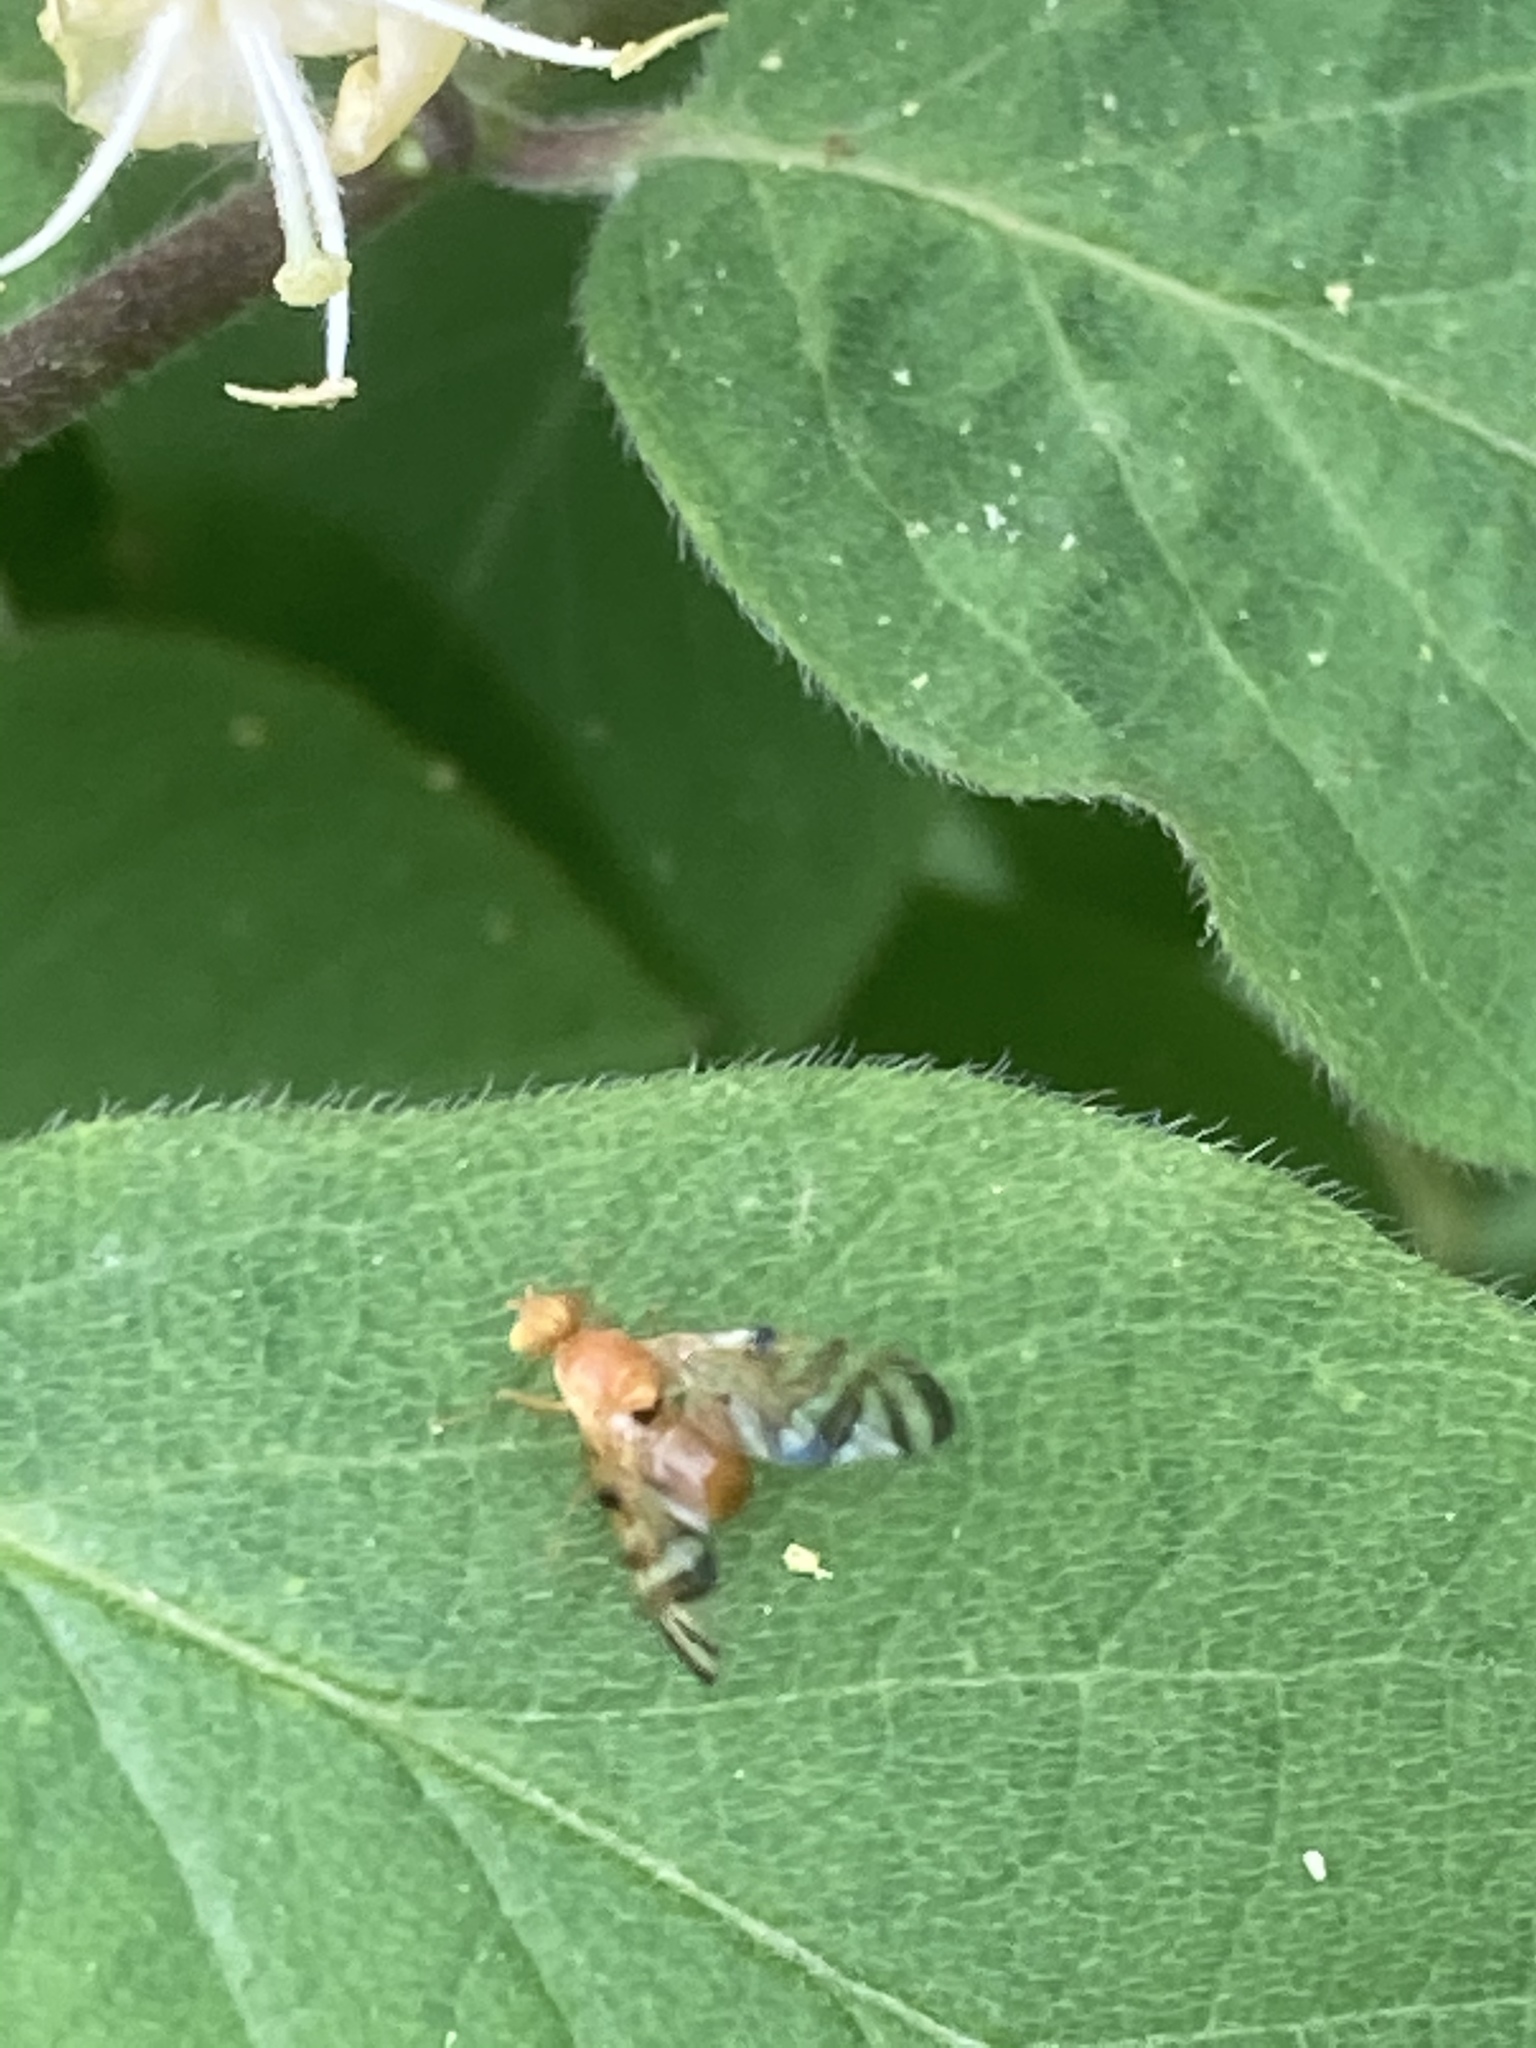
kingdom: Plantae
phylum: Tracheophyta
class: Magnoliopsida
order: Dipsacales
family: Caprifoliaceae
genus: Lonicera
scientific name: Lonicera xylosteum
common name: Fly honeysuckle
